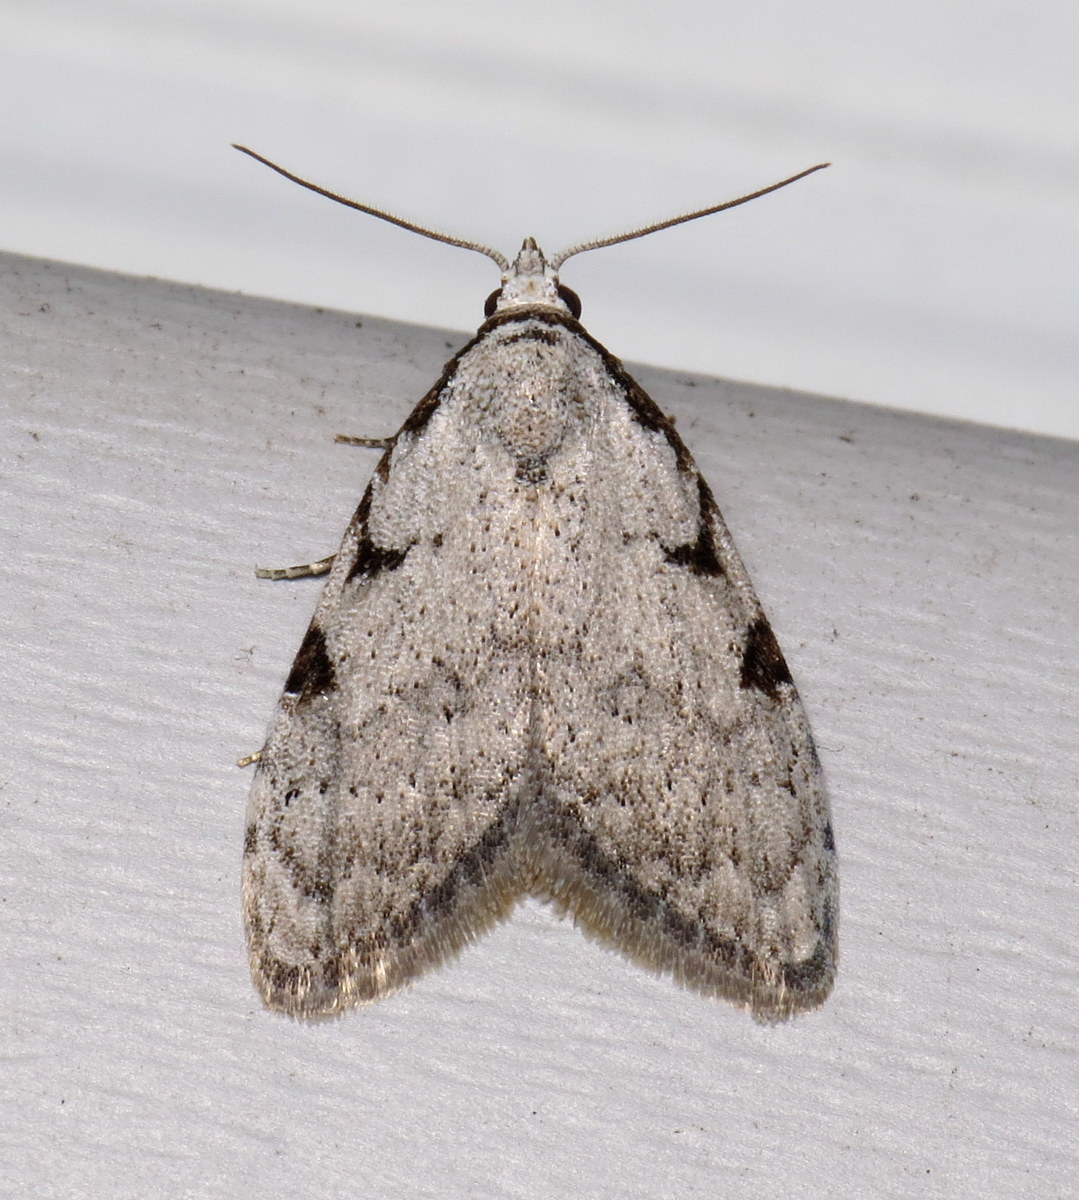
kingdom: Animalia
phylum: Arthropoda
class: Insecta
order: Lepidoptera
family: Nolidae
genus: Nola
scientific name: Nola triquetrana
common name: Three-spotted nola moth
